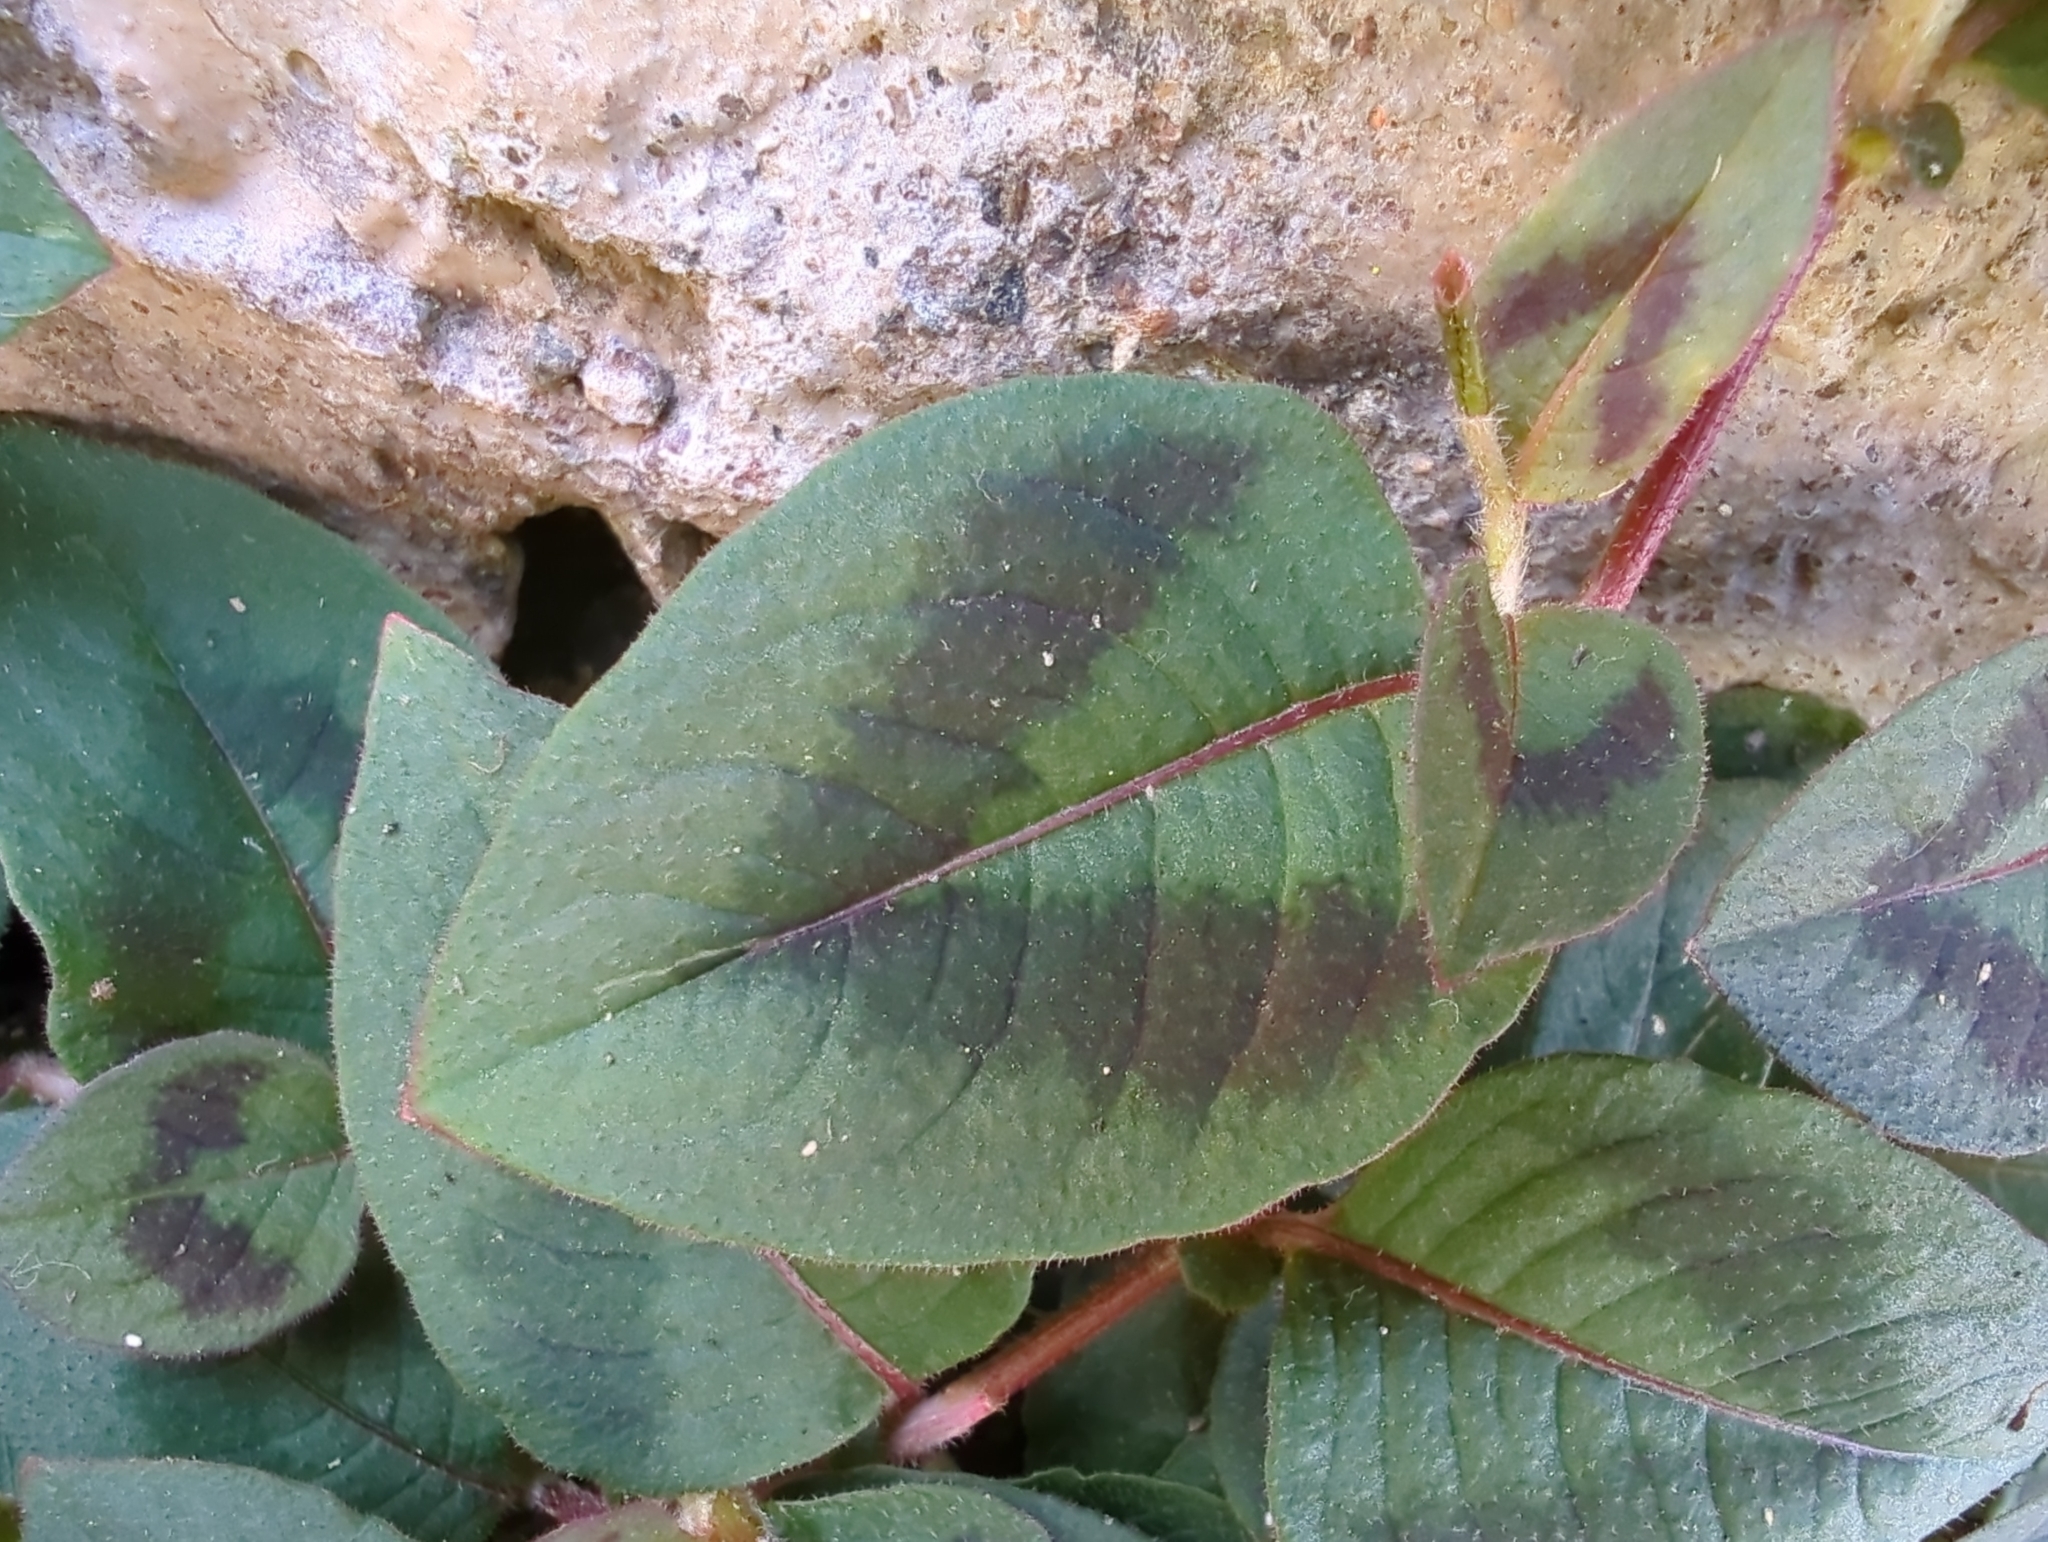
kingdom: Plantae
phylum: Tracheophyta
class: Magnoliopsida
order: Caryophyllales
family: Polygonaceae
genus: Persicaria
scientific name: Persicaria capitata
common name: Pinkhead smartweed
